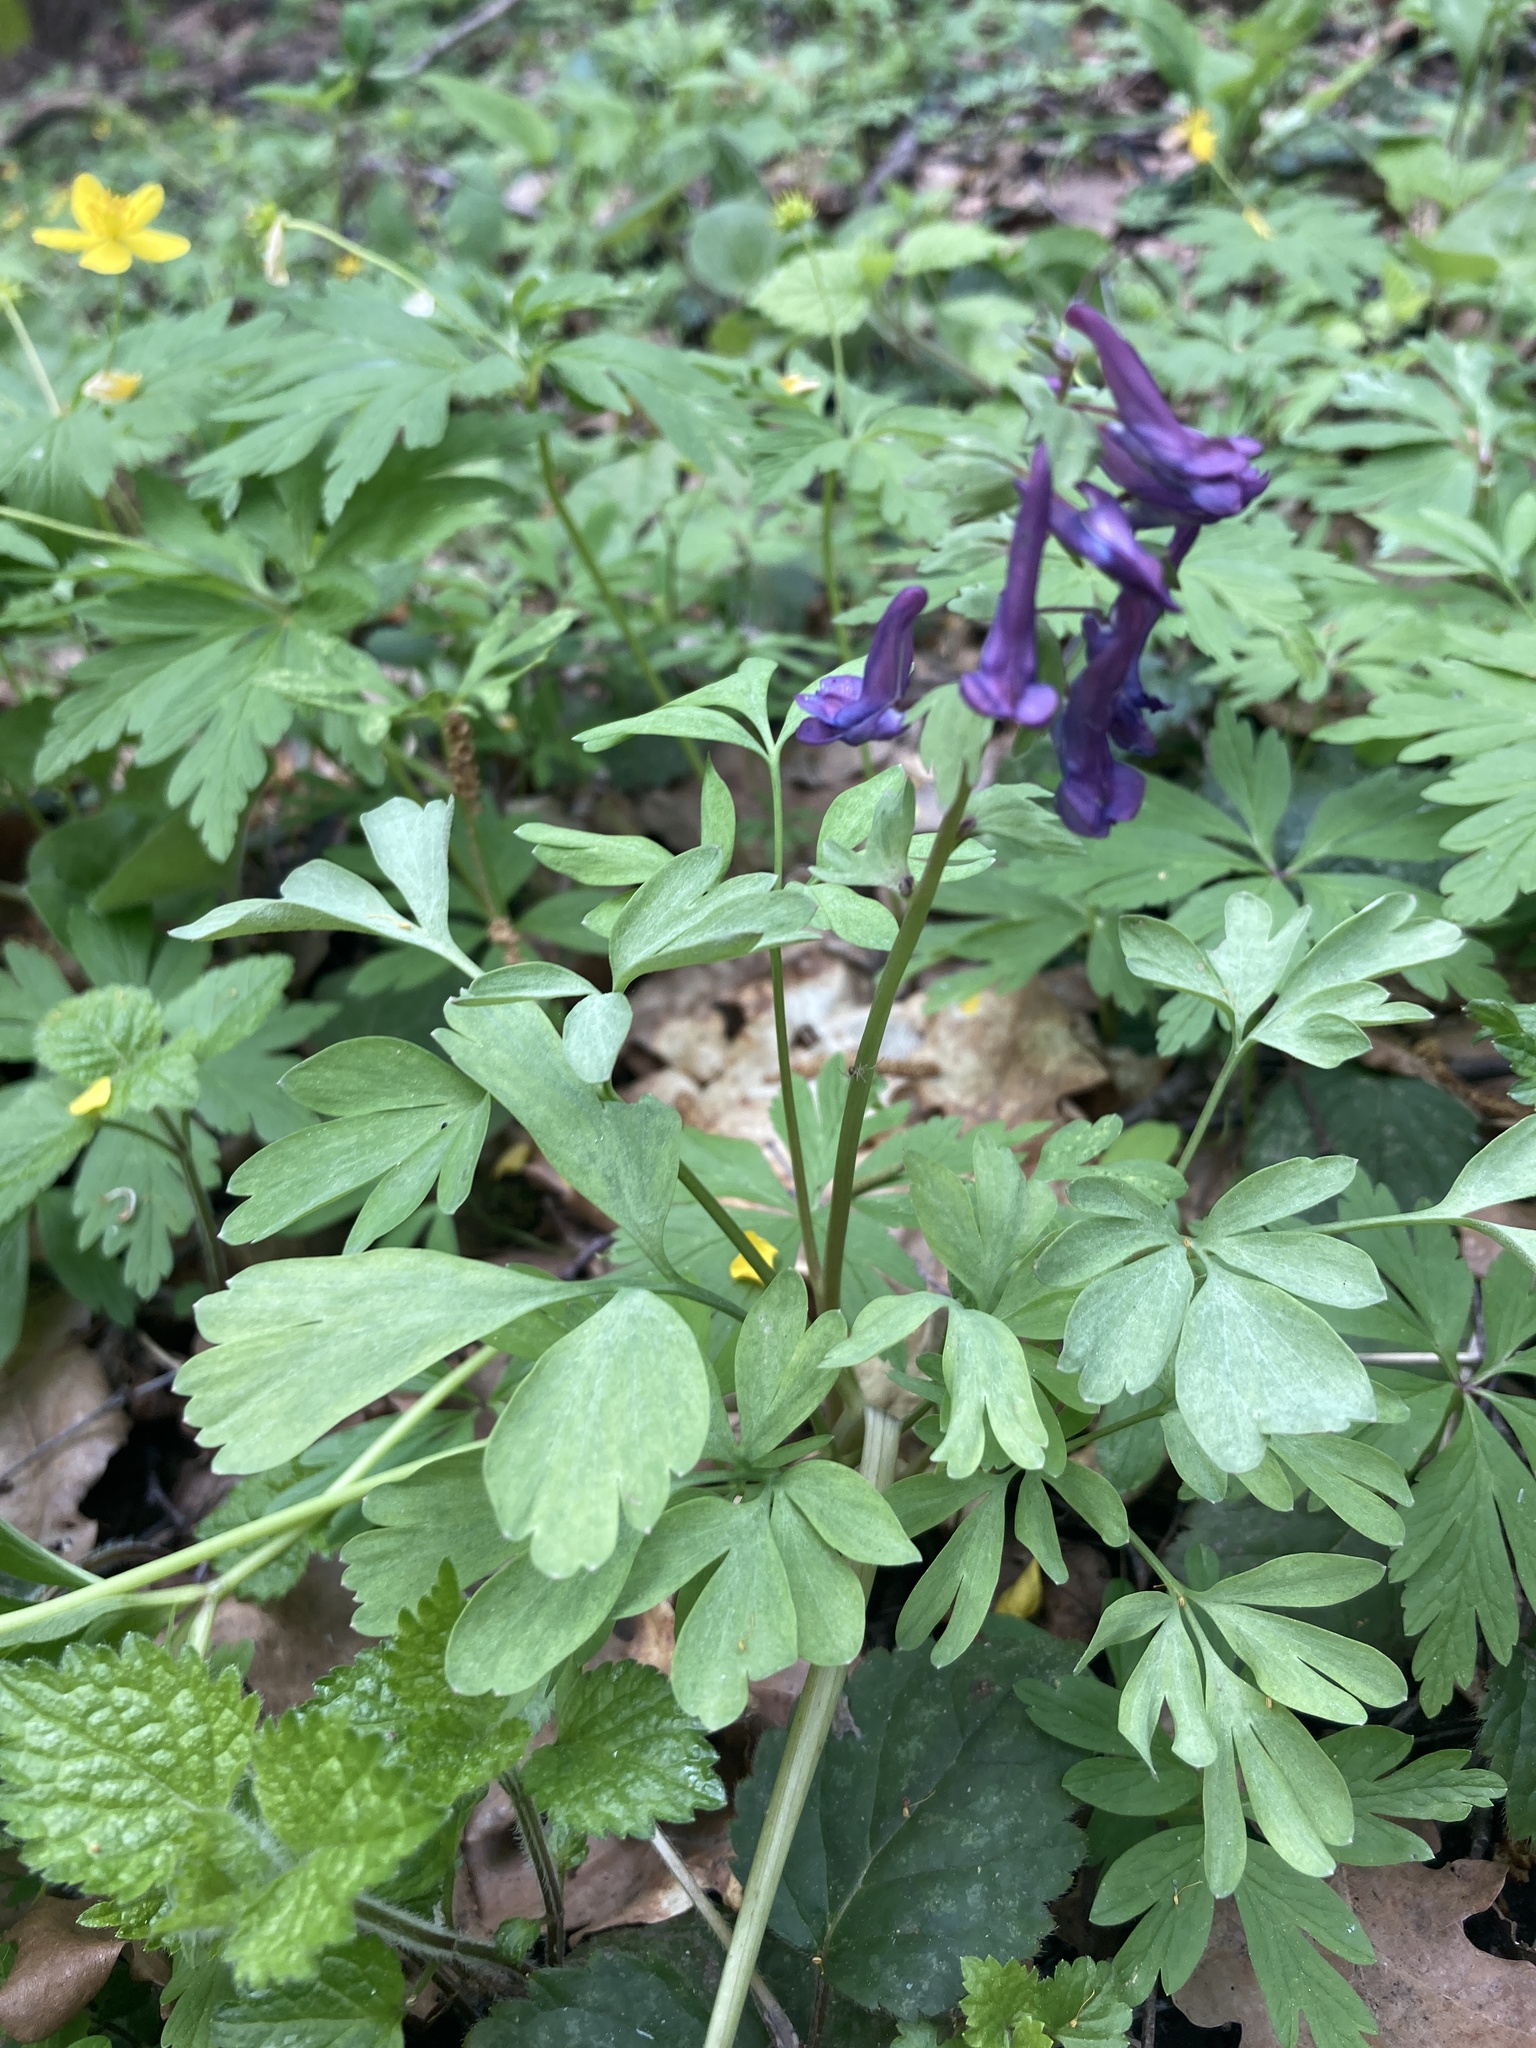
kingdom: Plantae
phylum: Tracheophyta
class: Magnoliopsida
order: Ranunculales
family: Papaveraceae
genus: Corydalis
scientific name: Corydalis solida
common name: Bird-in-a-bush
